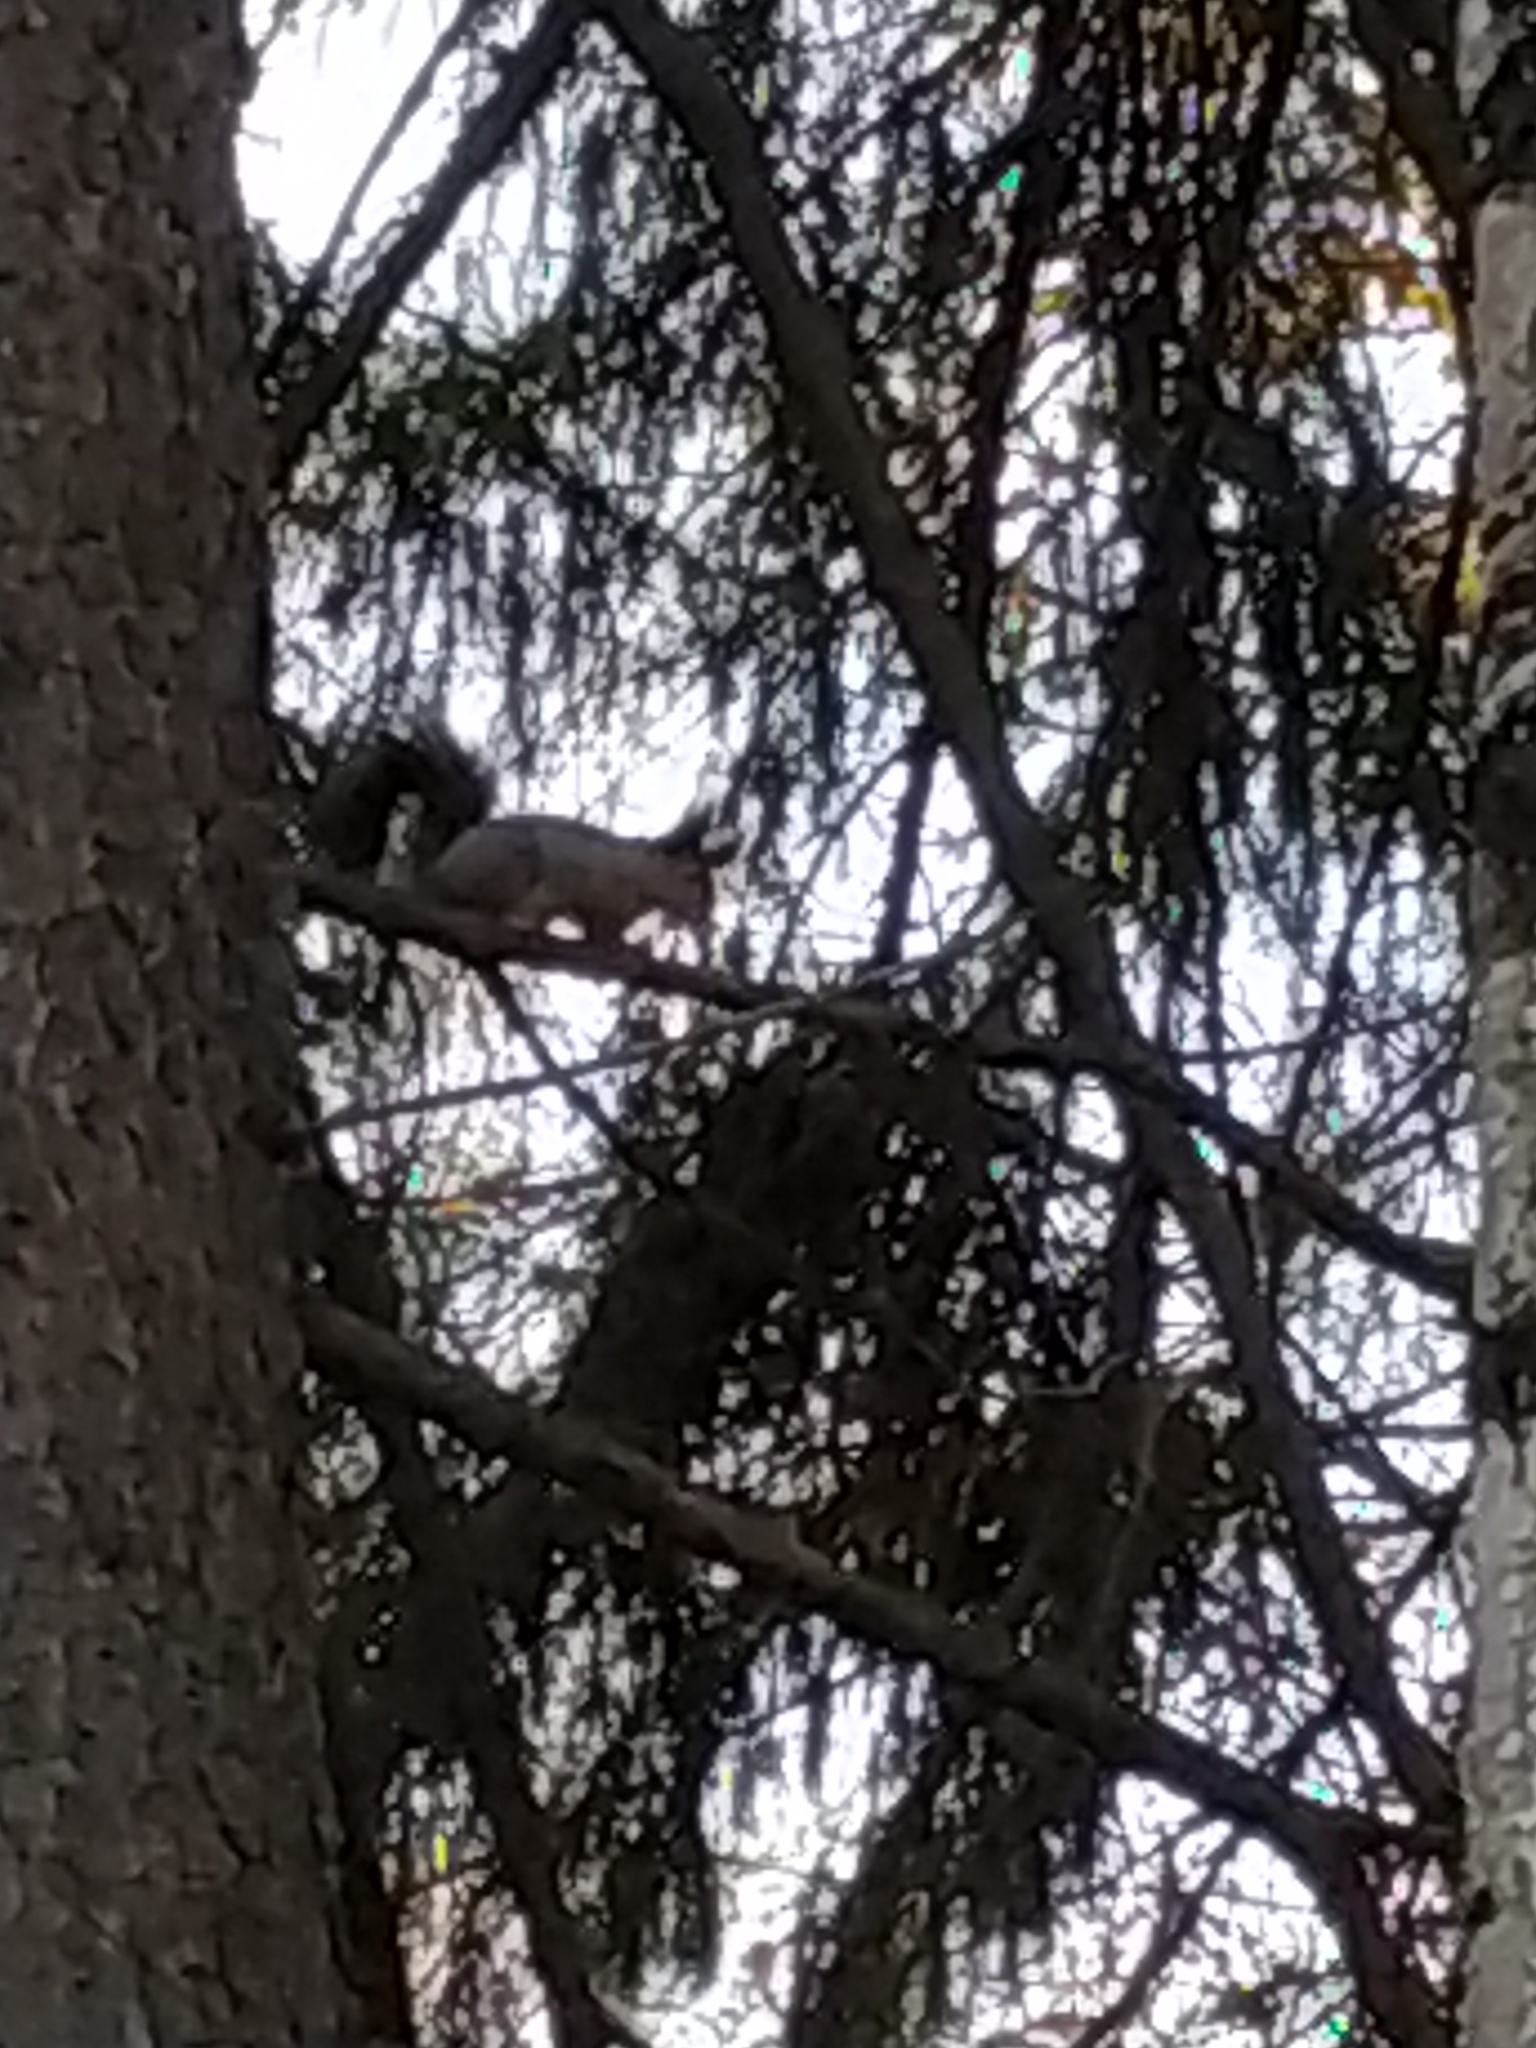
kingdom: Animalia
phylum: Chordata
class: Mammalia
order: Rodentia
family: Sciuridae
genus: Sciurus
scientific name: Sciurus vulgaris
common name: Eurasian red squirrel
